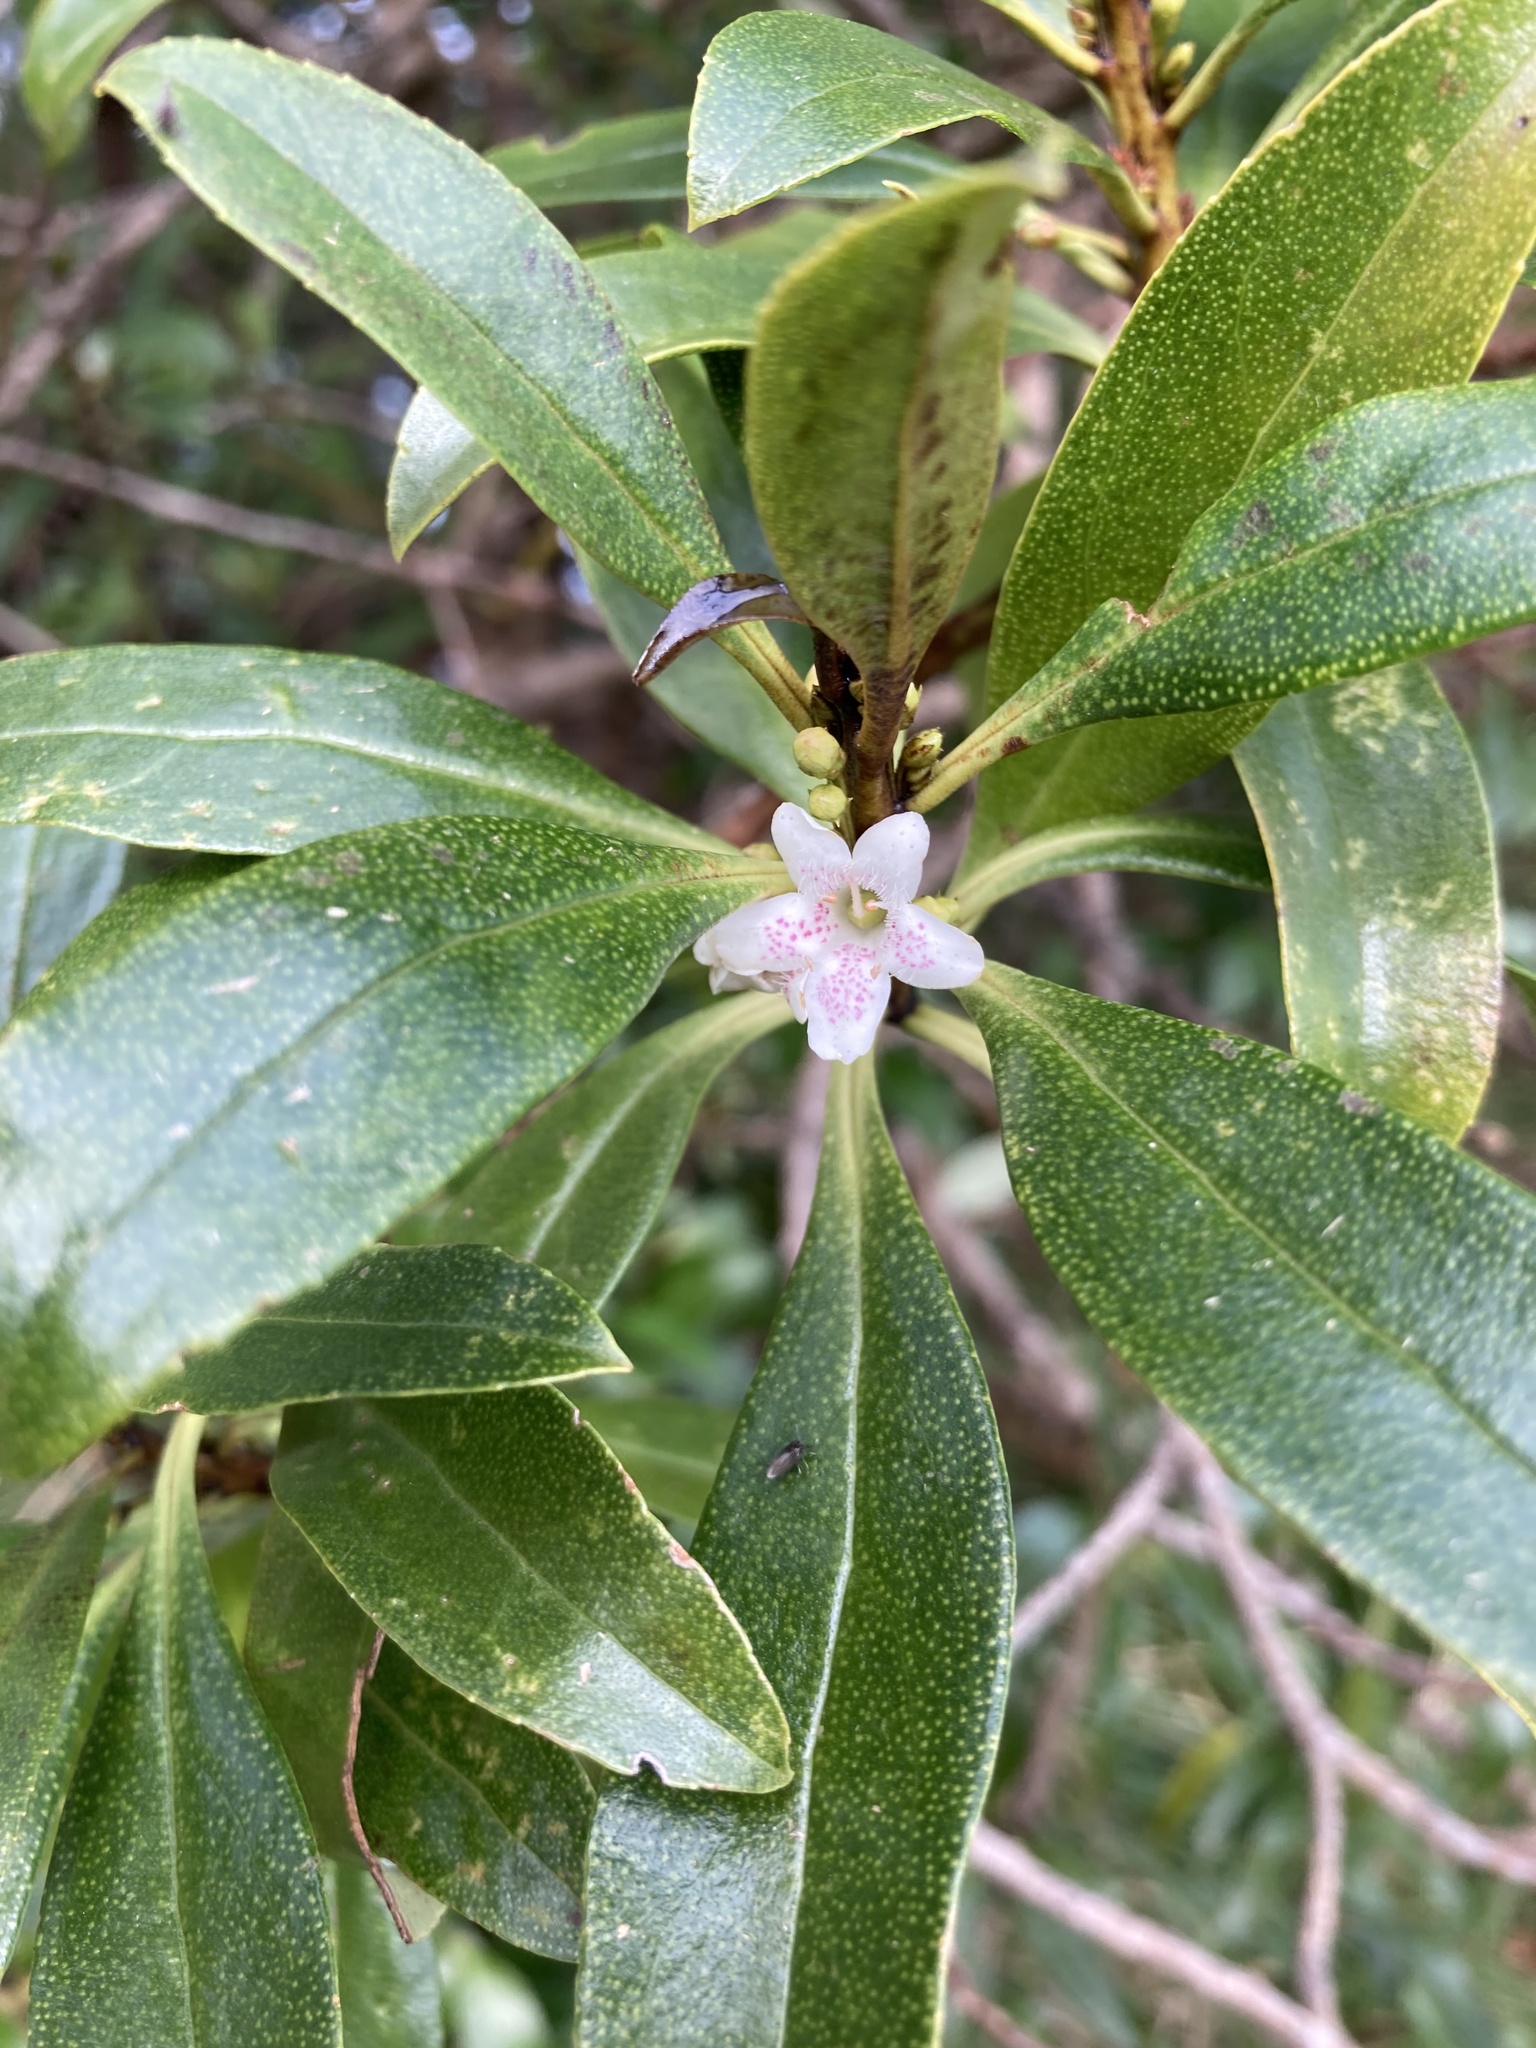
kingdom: Plantae
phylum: Tracheophyta
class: Magnoliopsida
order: Lamiales
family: Scrophulariaceae
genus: Myoporum
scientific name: Myoporum laetum
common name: Ngaio tree
